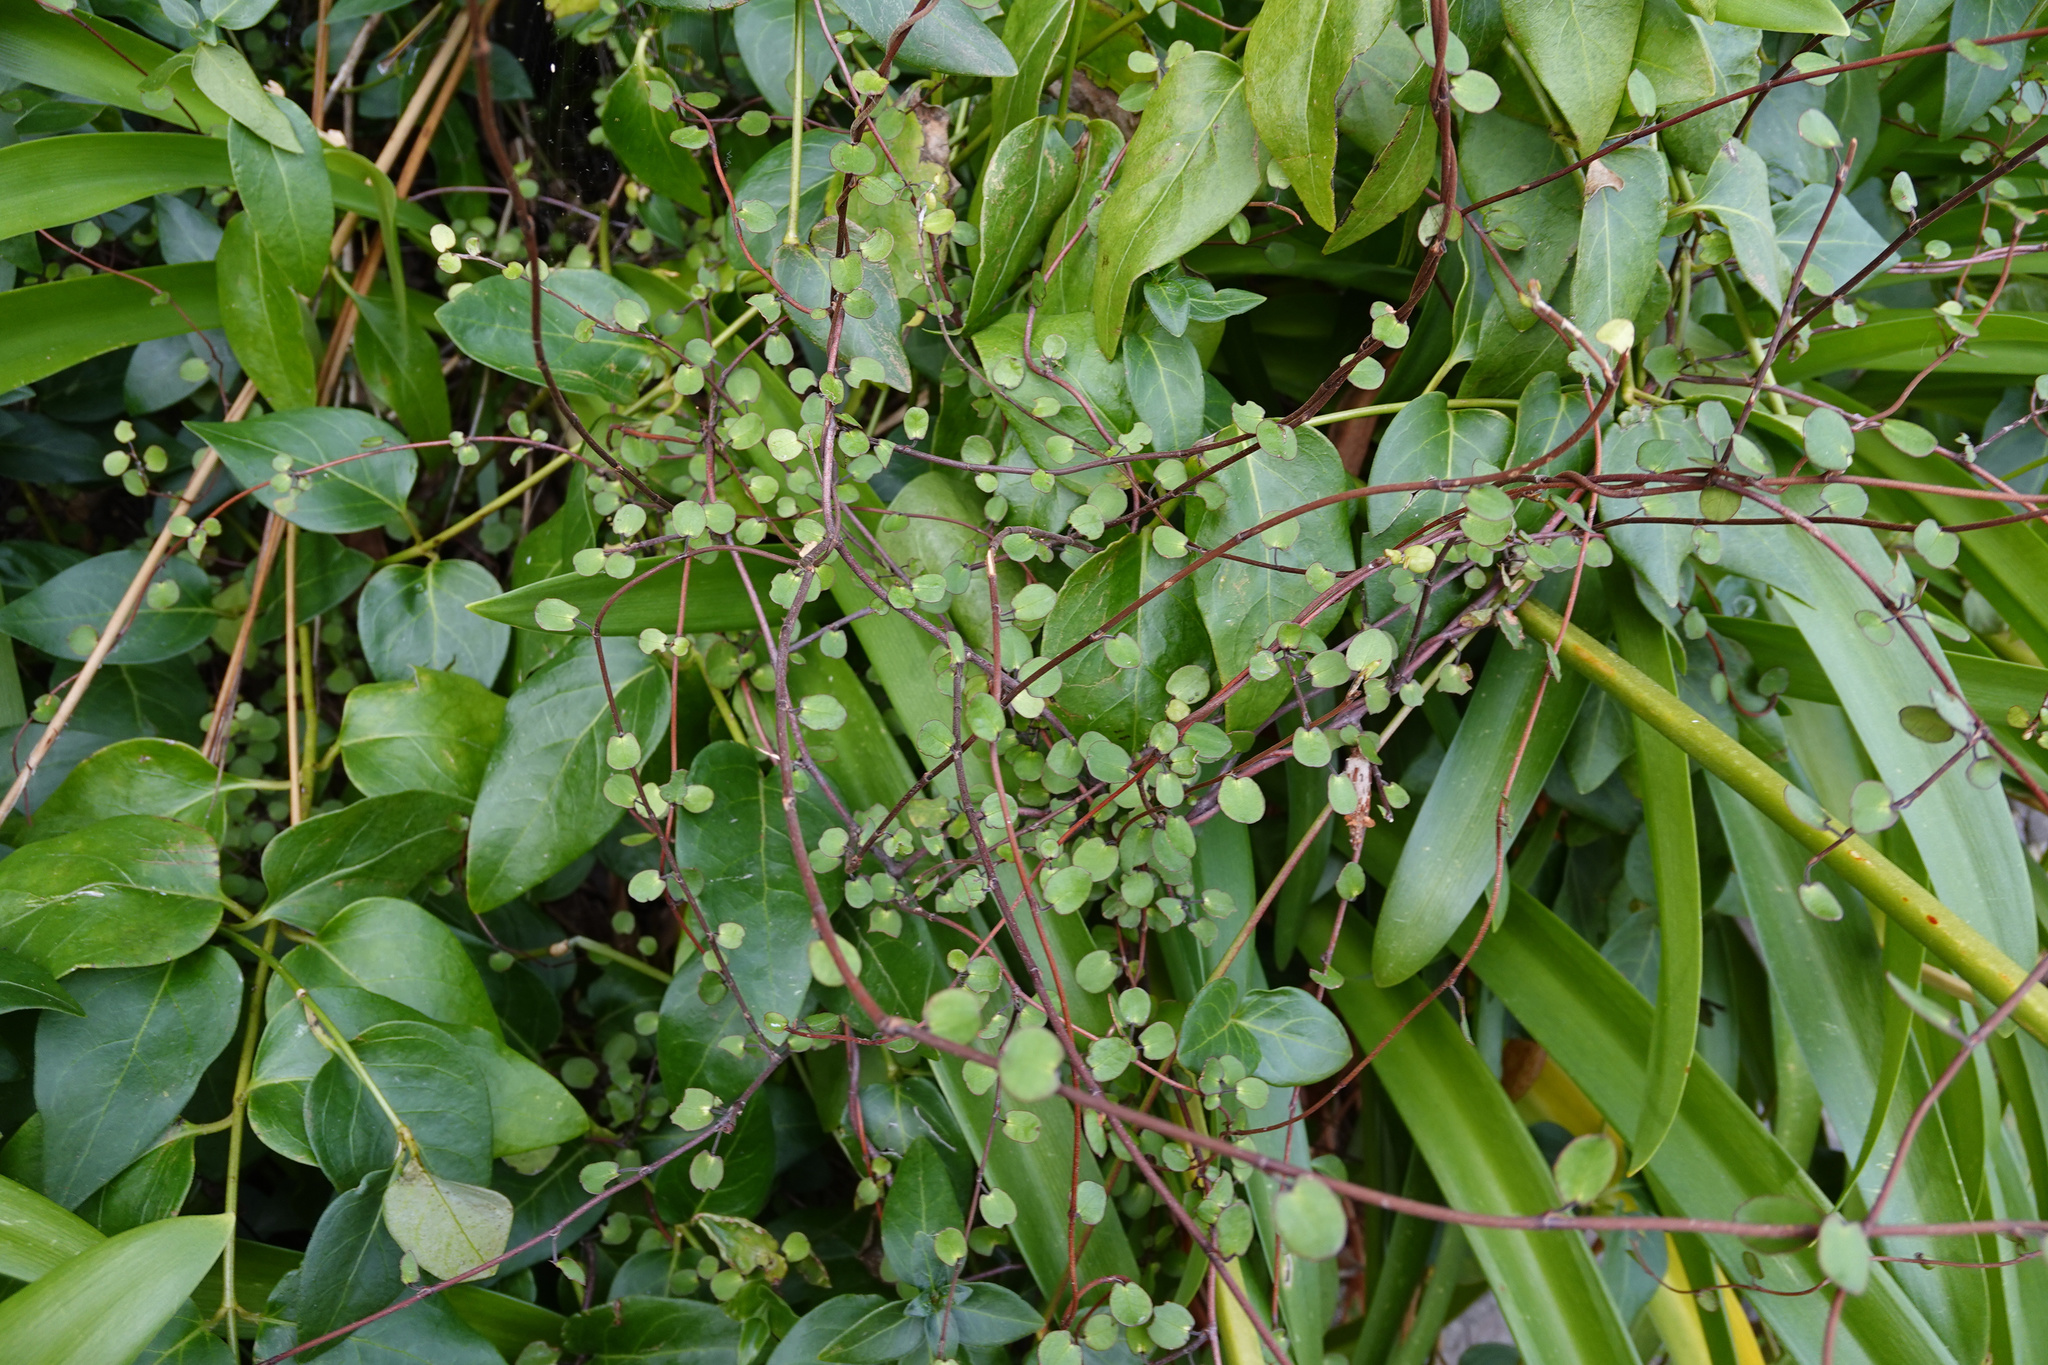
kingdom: Plantae
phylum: Tracheophyta
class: Magnoliopsida
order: Caryophyllales
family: Polygonaceae
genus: Muehlenbeckia
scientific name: Muehlenbeckia complexa
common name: Wireplant
